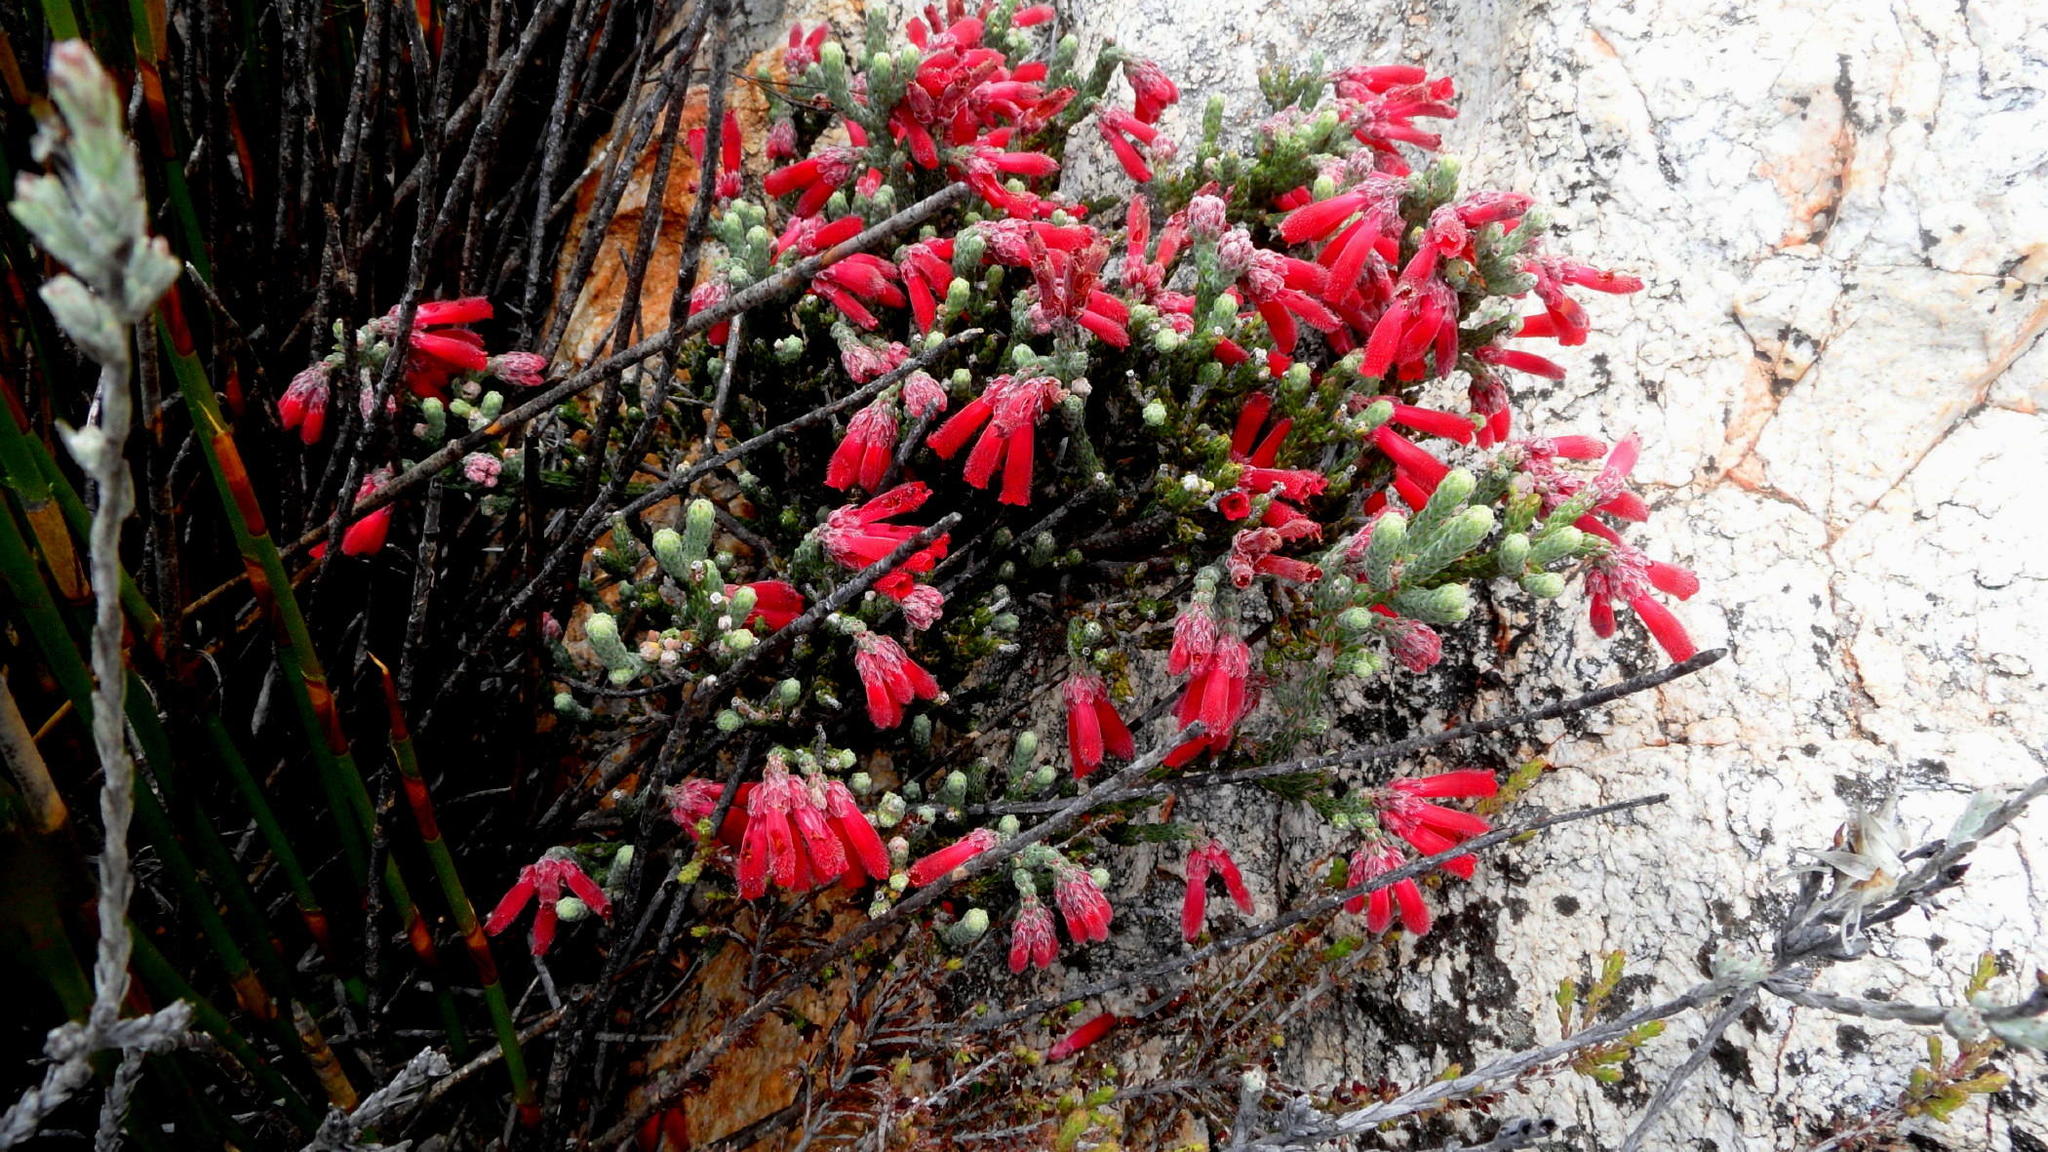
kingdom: Plantae
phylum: Tracheophyta
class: Magnoliopsida
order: Ericales
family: Ericaceae
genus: Erica
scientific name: Erica strigilifolia
